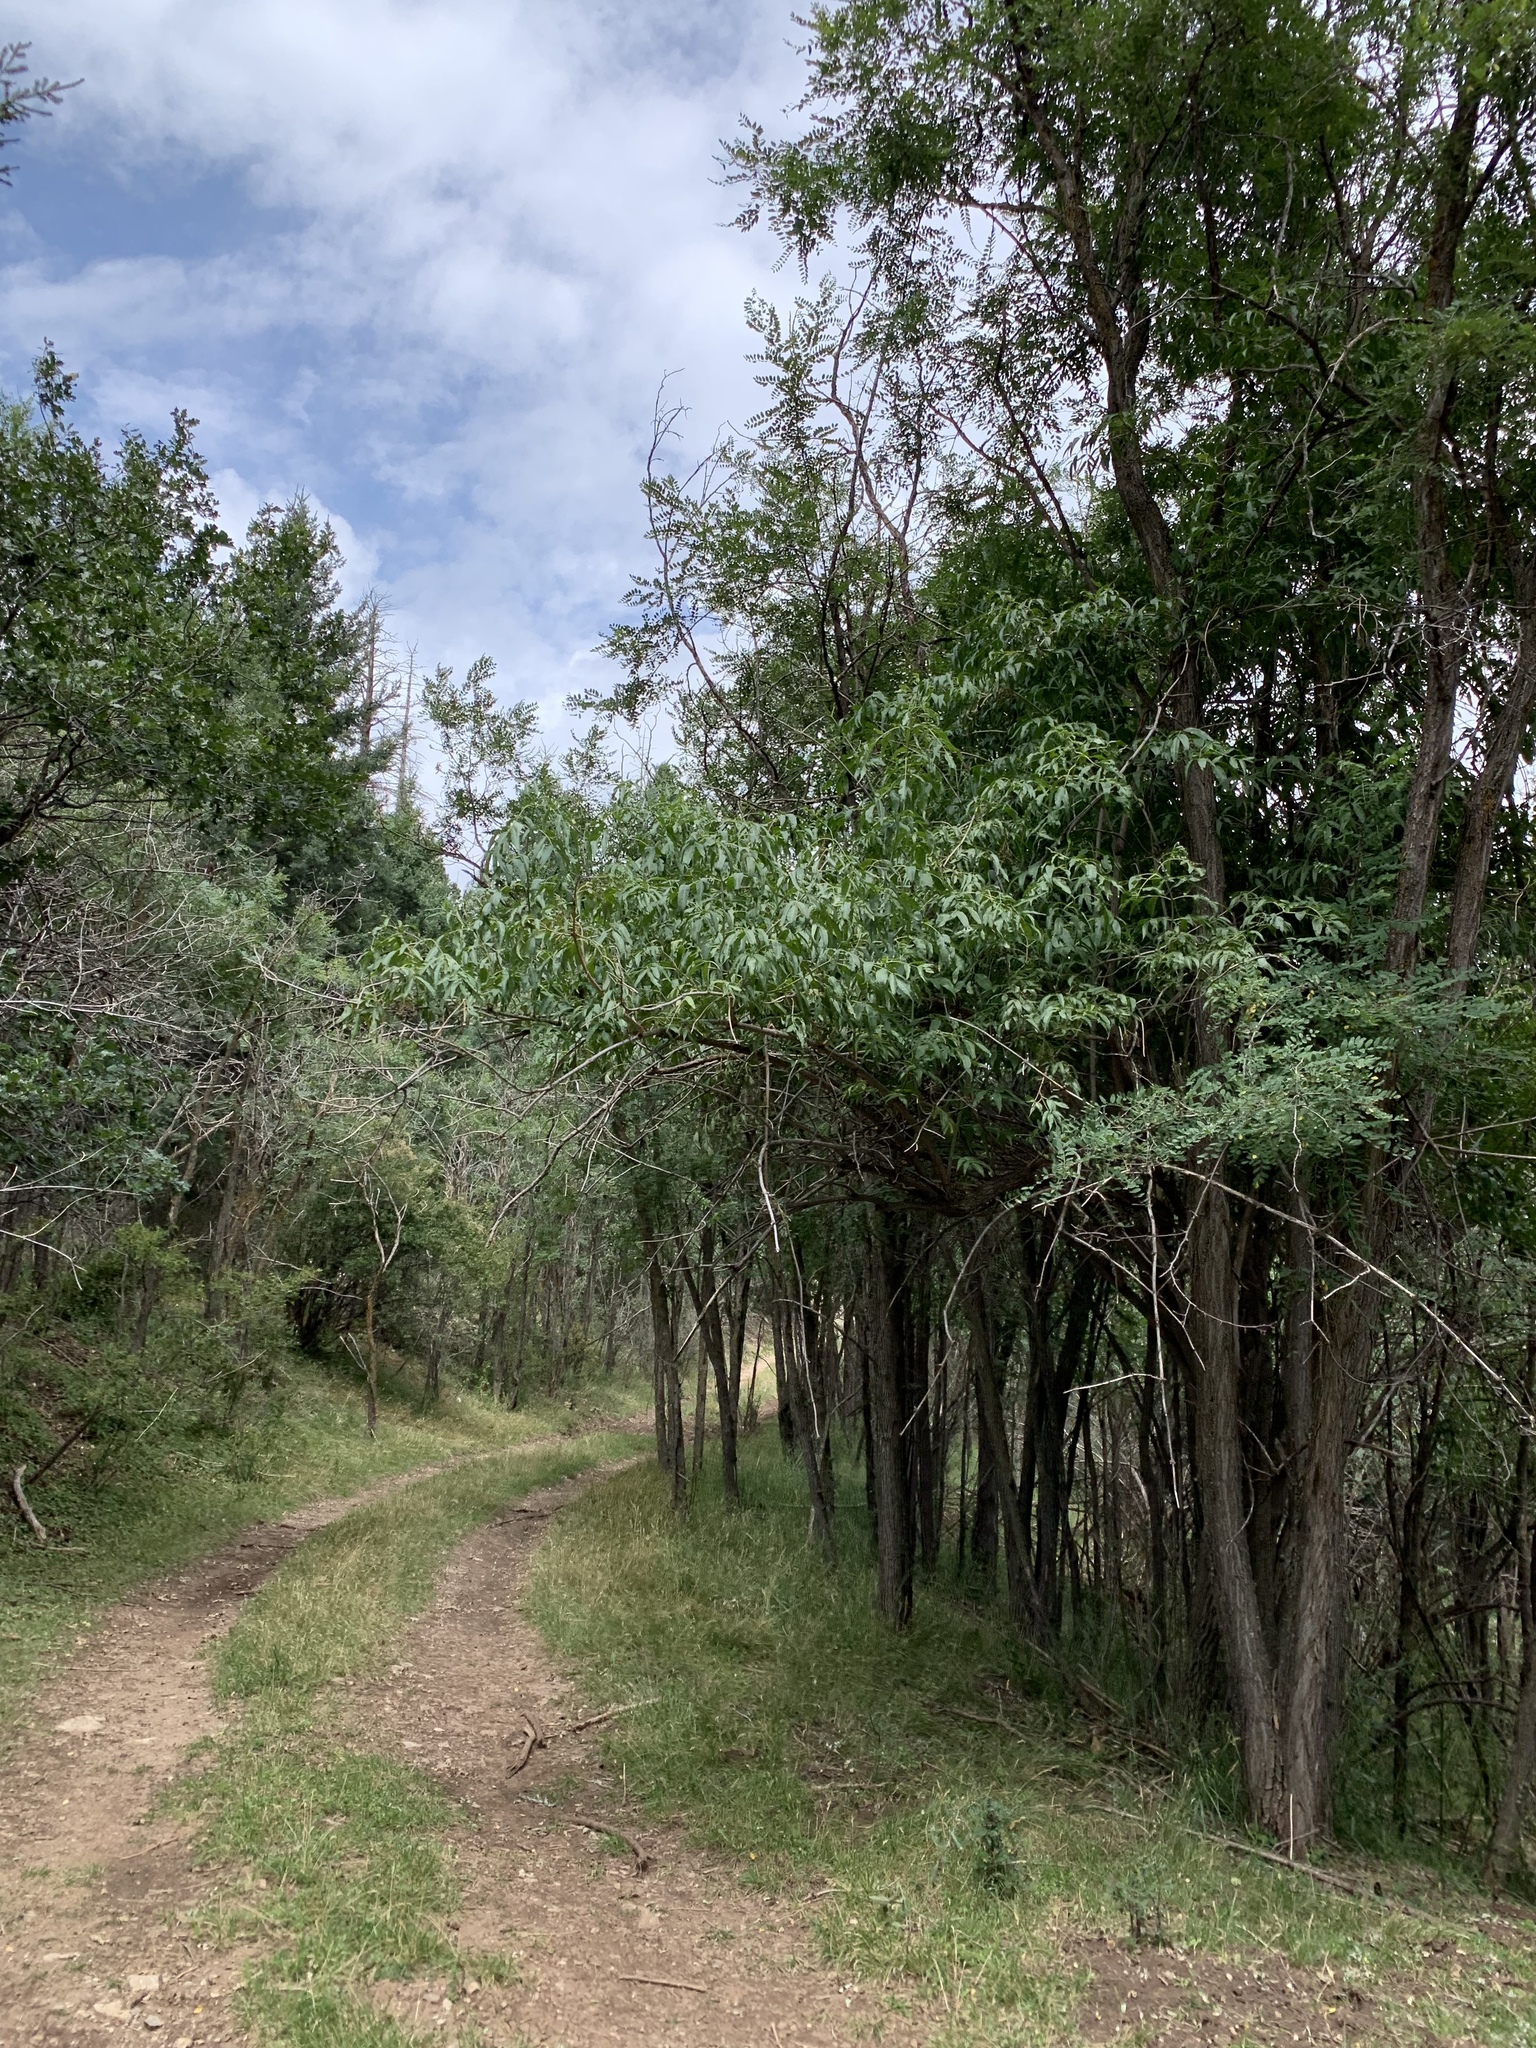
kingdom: Plantae
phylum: Tracheophyta
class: Magnoliopsida
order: Dipsacales
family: Viburnaceae
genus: Sambucus
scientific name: Sambucus cerulea
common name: Blue elder
